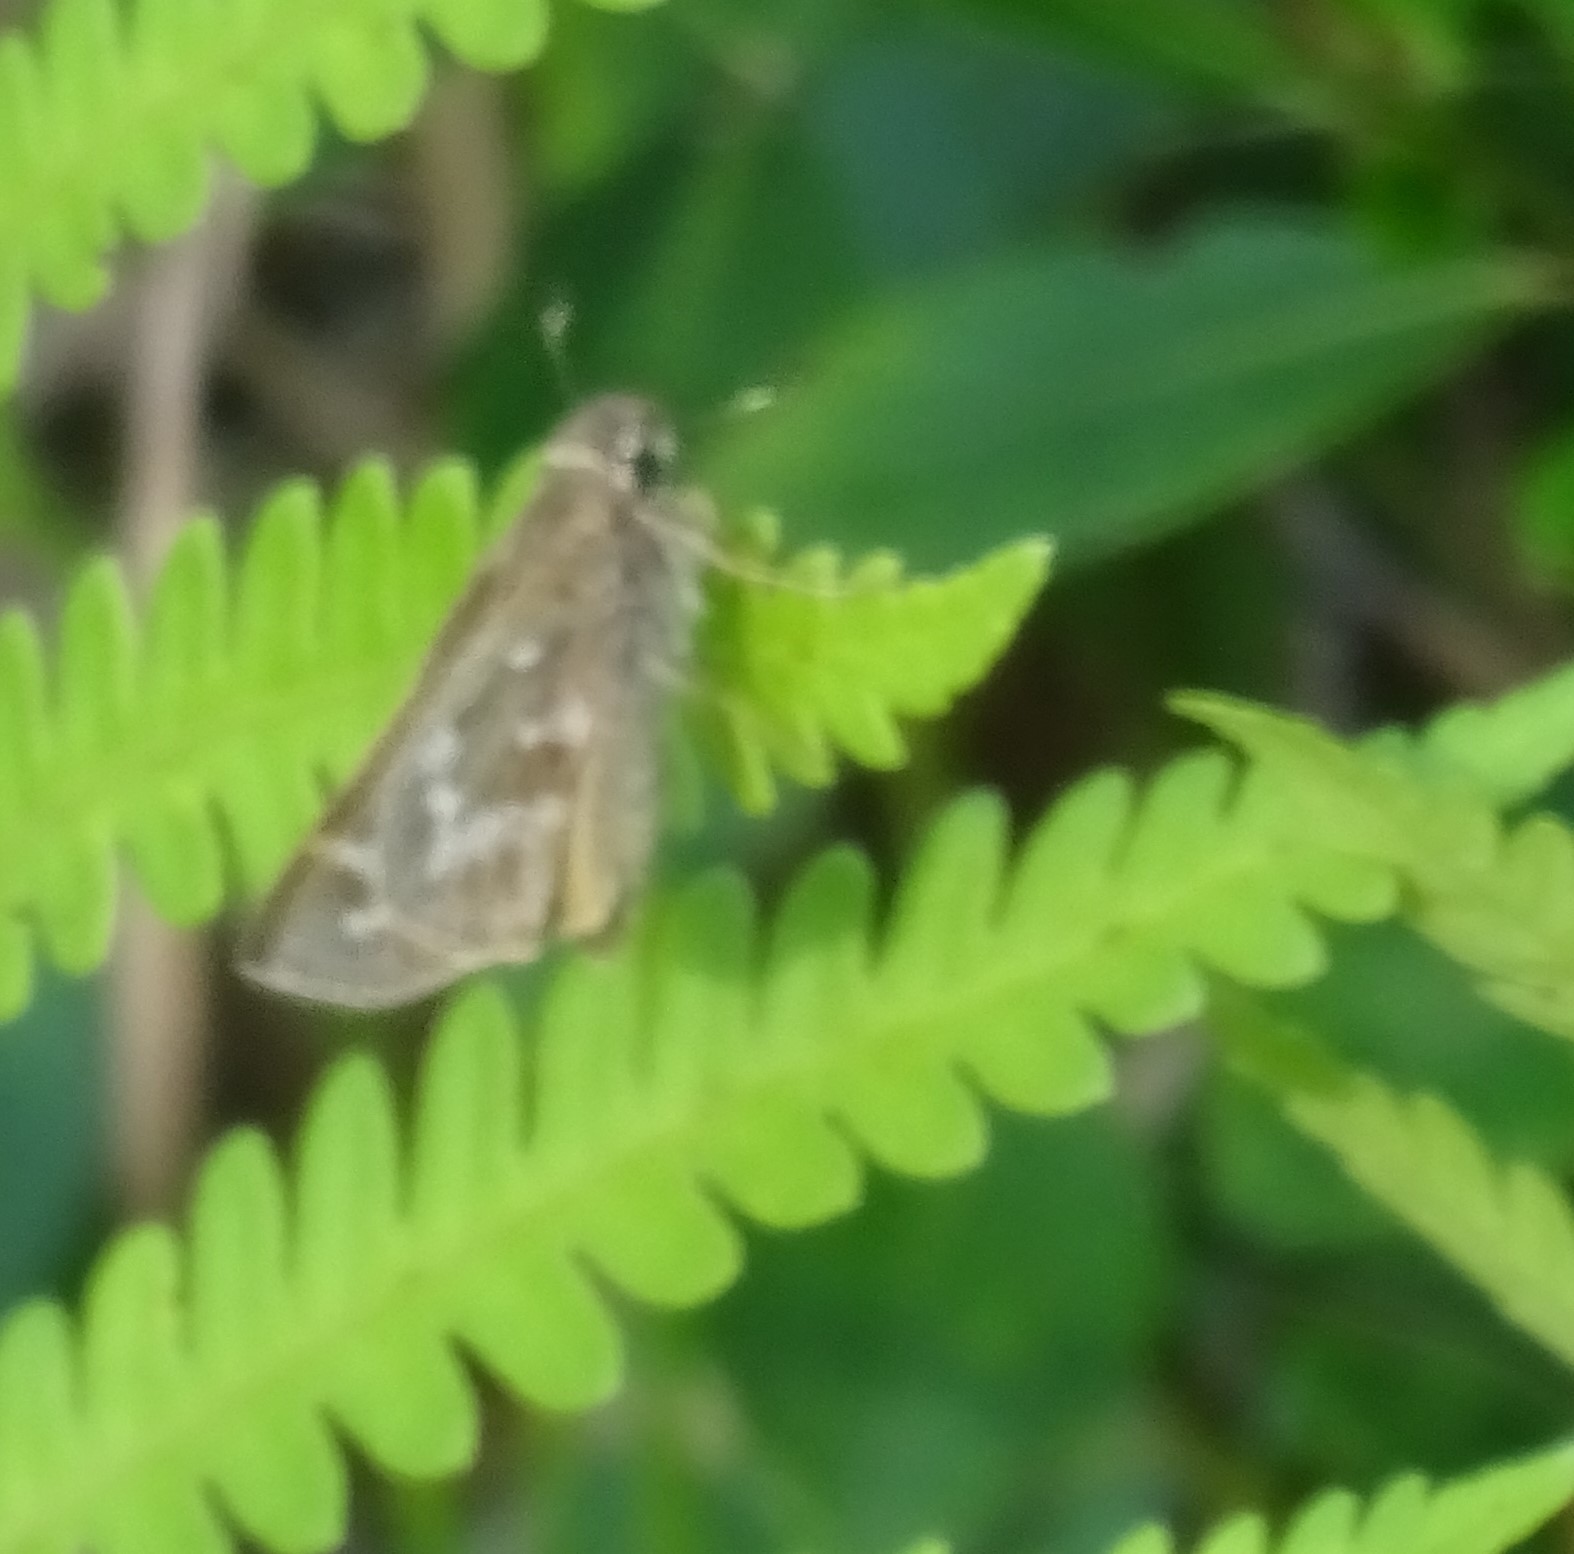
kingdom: Animalia
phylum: Arthropoda
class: Insecta
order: Lepidoptera
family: Hesperiidae
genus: Atalopedes
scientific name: Atalopedes
